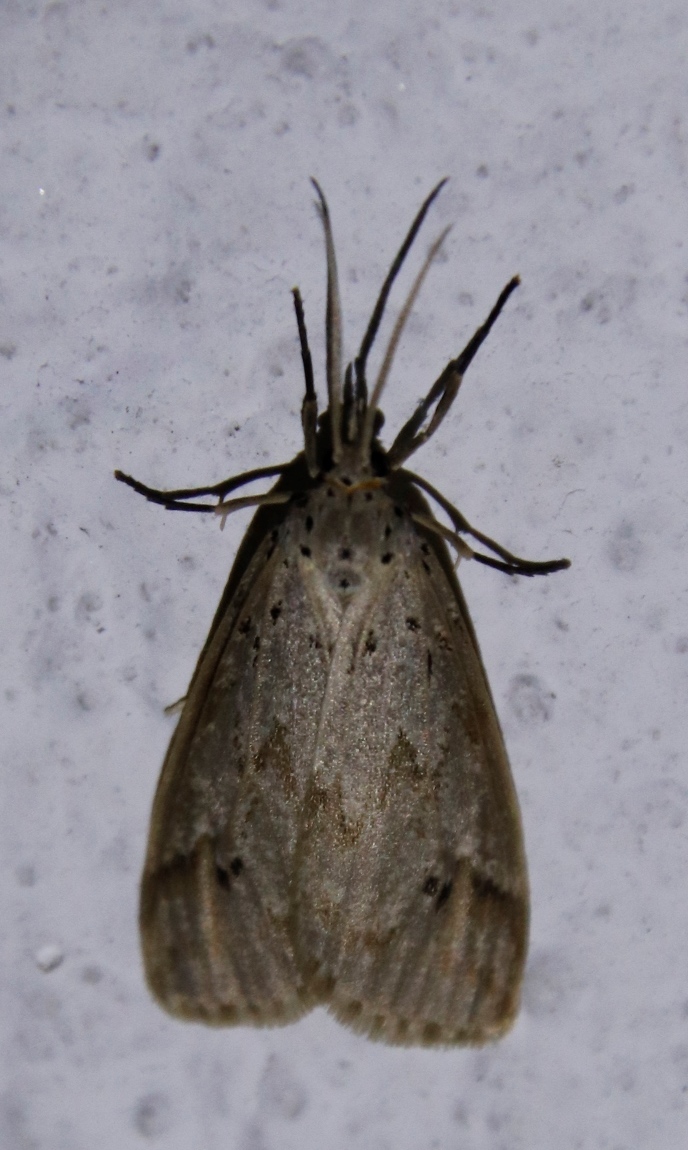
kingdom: Animalia
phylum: Arthropoda
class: Insecta
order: Lepidoptera
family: Erebidae
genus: Galtara
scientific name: Galtara rostrata
